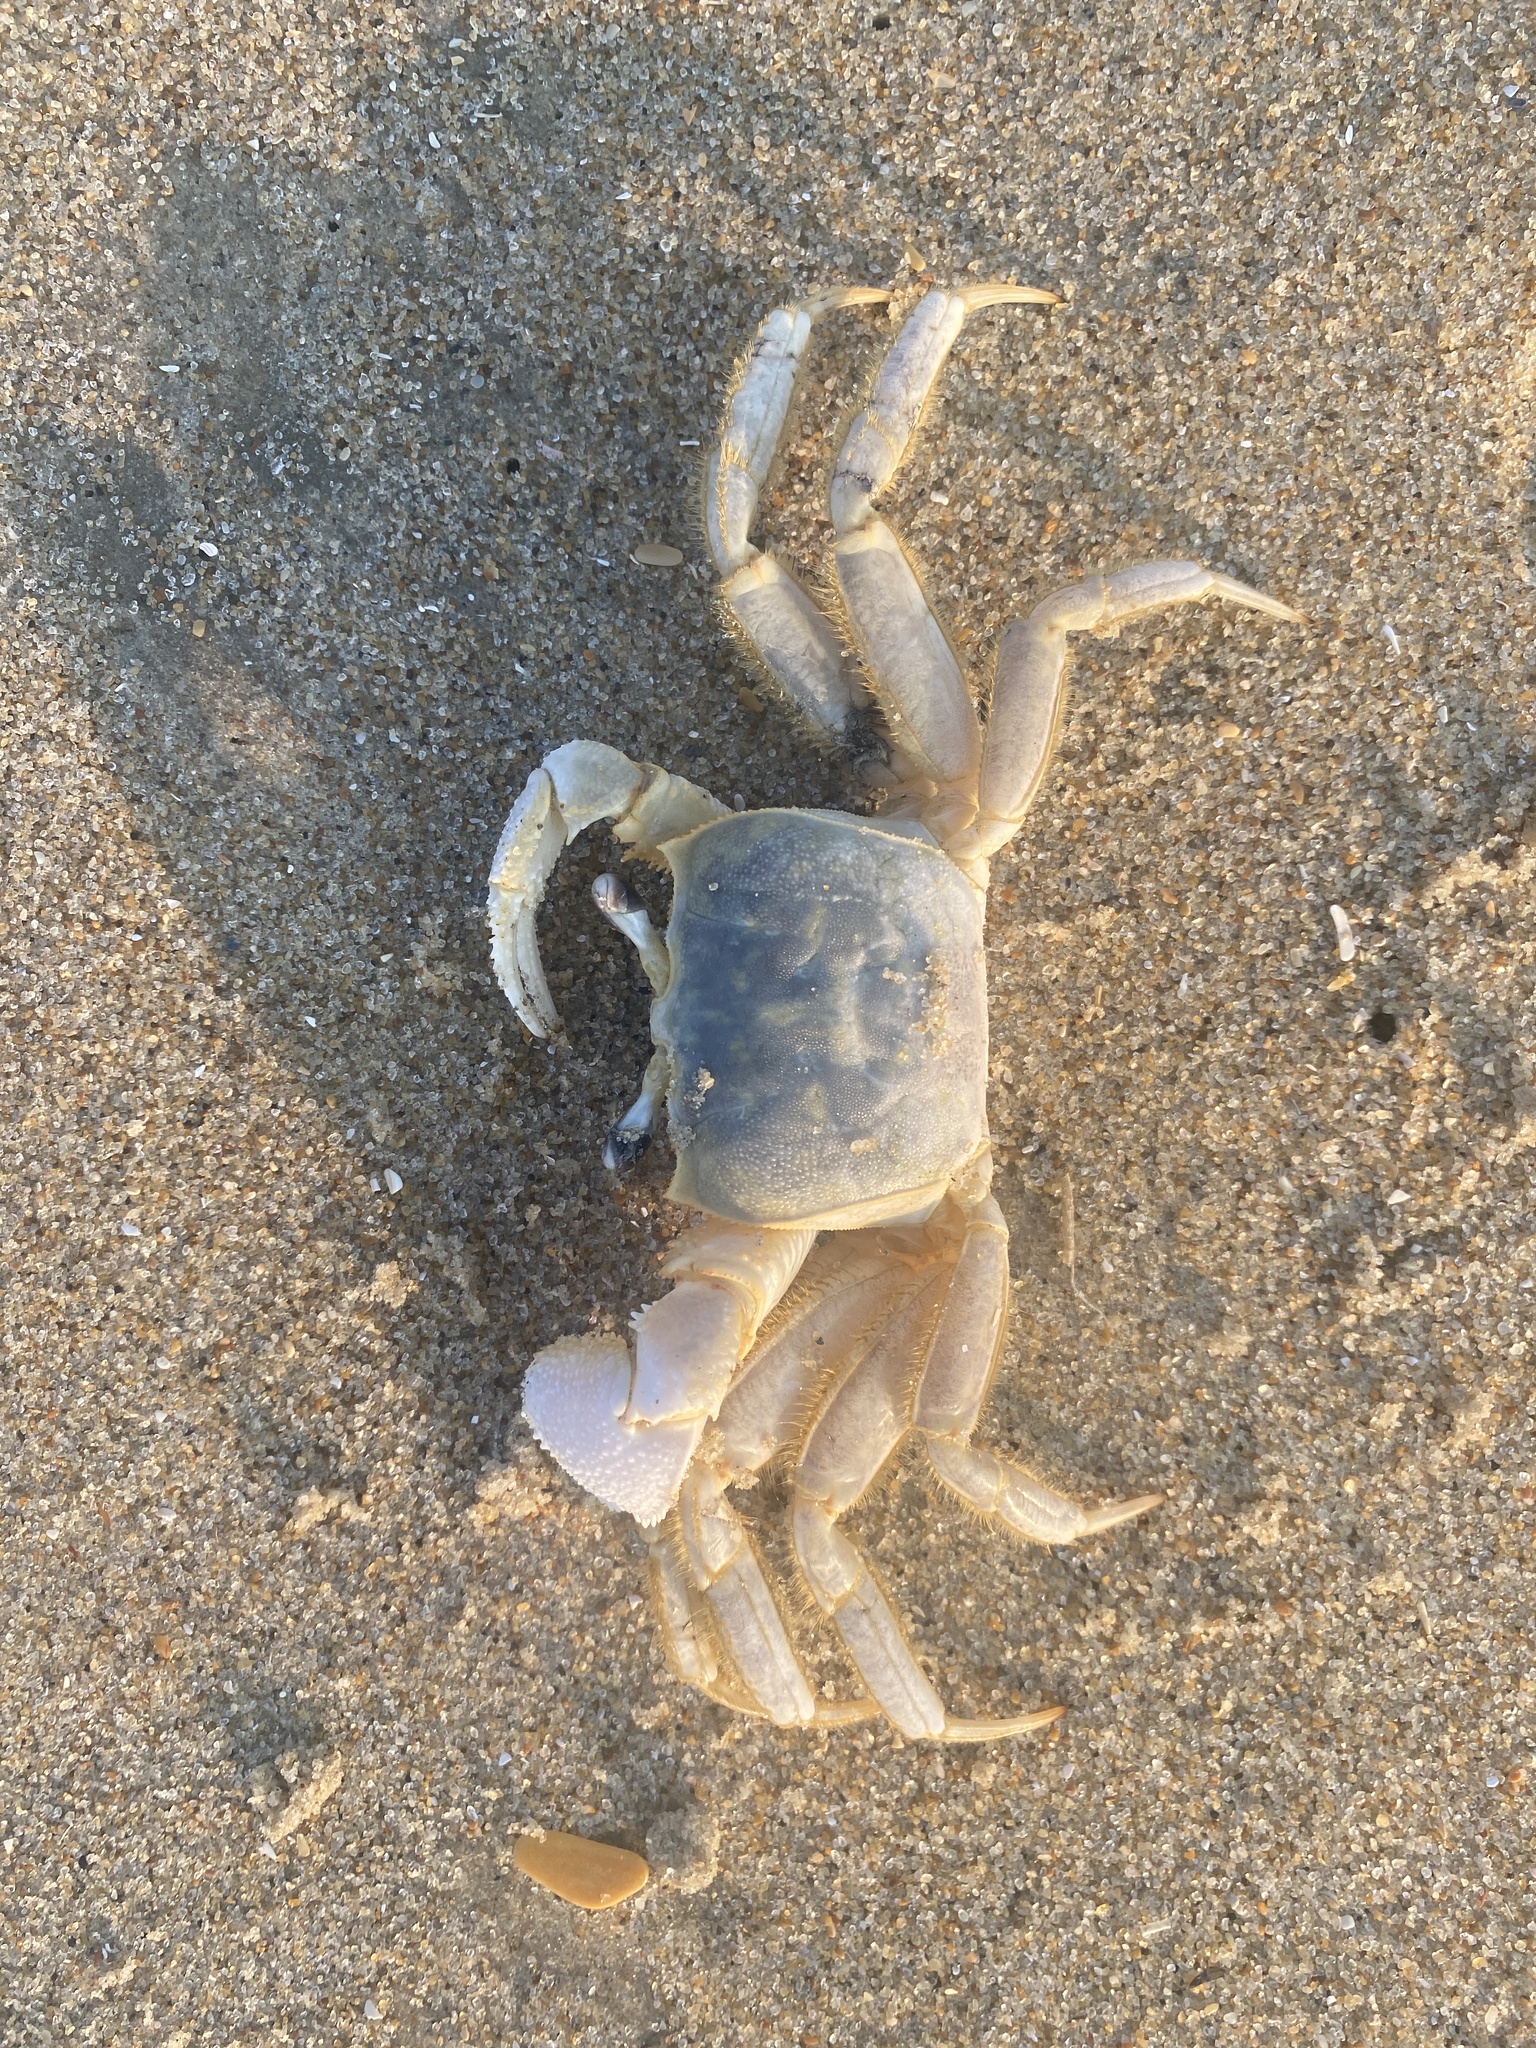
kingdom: Animalia
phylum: Arthropoda
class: Malacostraca
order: Decapoda
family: Ocypodidae
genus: Ocypode
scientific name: Ocypode quadrata
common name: Ghost crab
